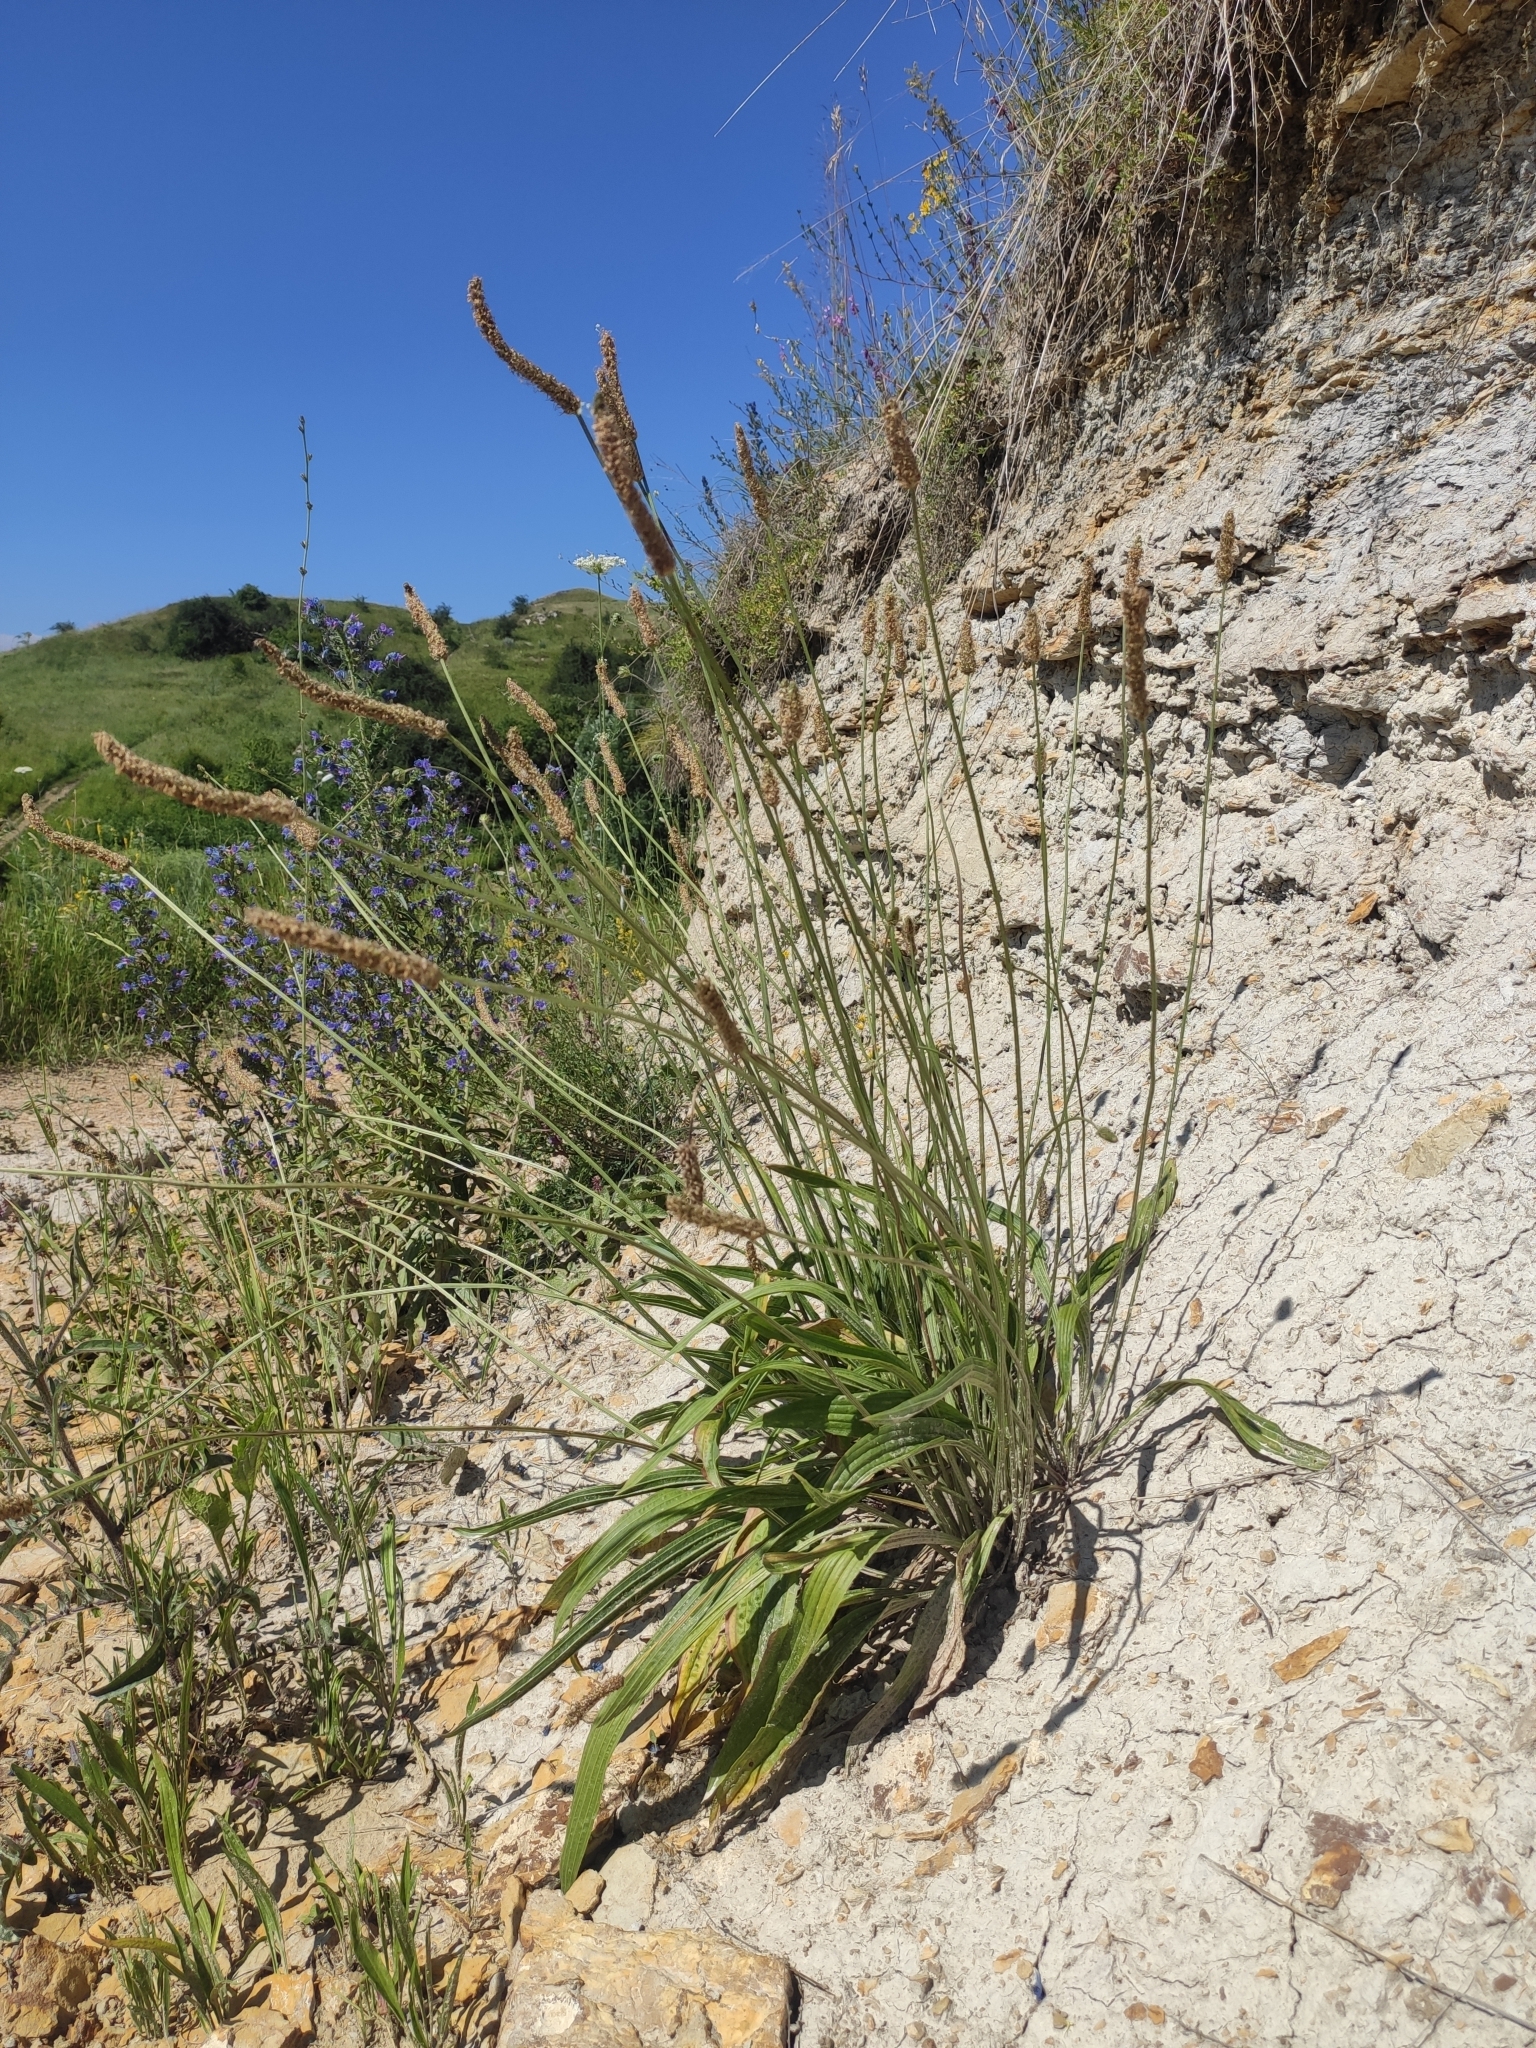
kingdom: Plantae
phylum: Tracheophyta
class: Magnoliopsida
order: Lamiales
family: Plantaginaceae
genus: Plantago
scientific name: Plantago lanceolata
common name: Ribwort plantain
